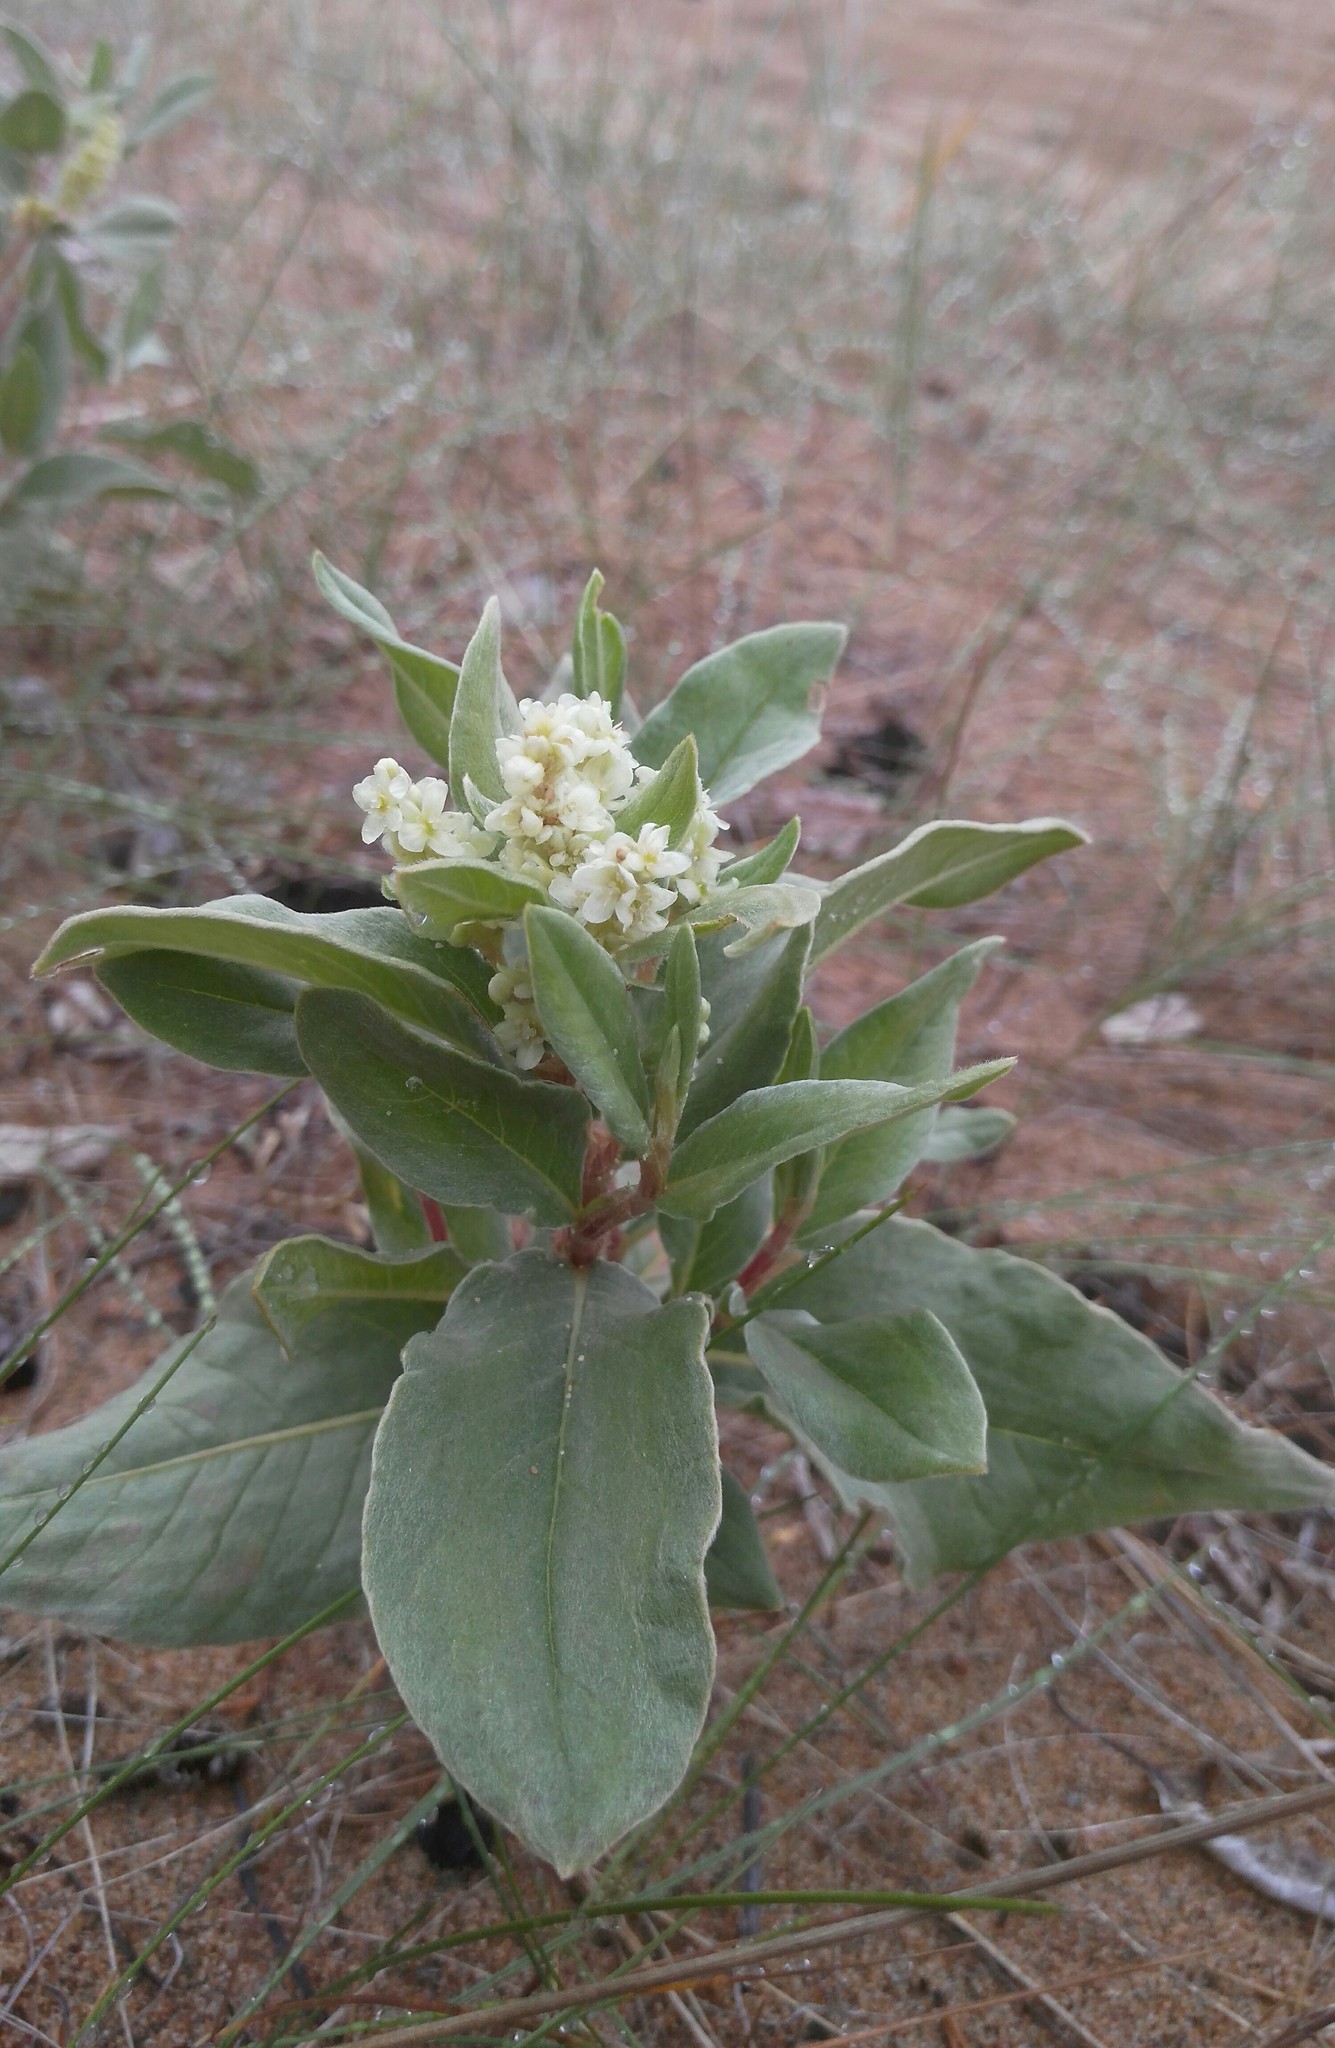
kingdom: Plantae
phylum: Tracheophyta
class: Magnoliopsida
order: Caryophyllales
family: Polygonaceae
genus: Polygonum
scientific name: Polygonum sericeum
